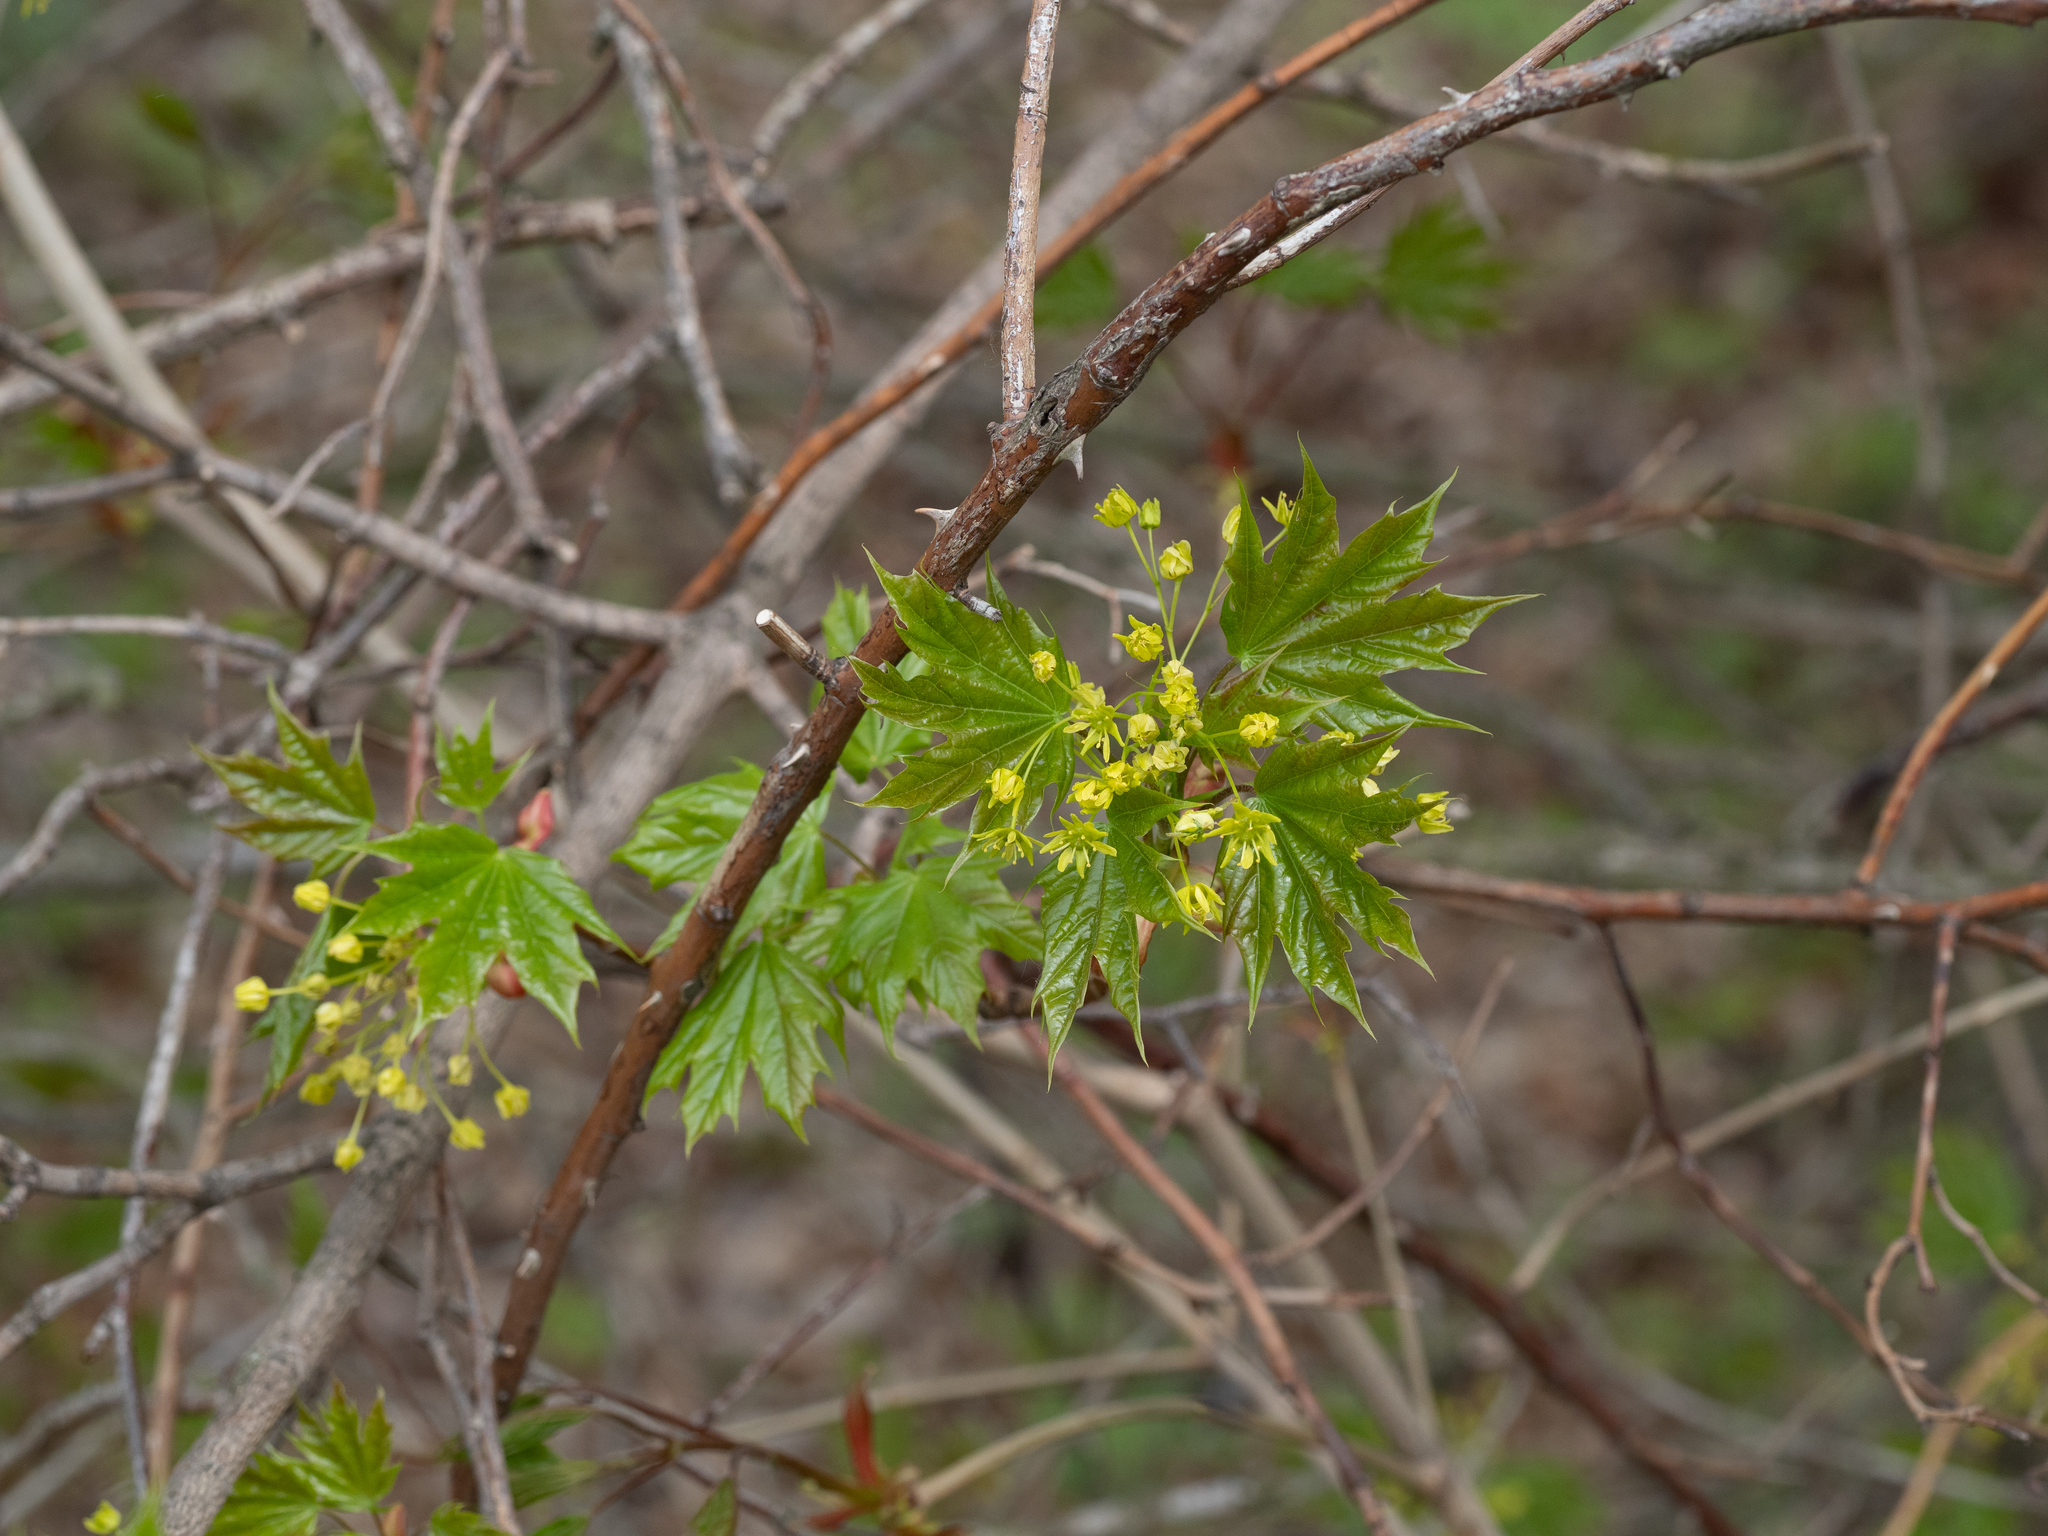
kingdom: Plantae
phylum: Tracheophyta
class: Magnoliopsida
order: Sapindales
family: Sapindaceae
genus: Acer
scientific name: Acer platanoides
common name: Norway maple
